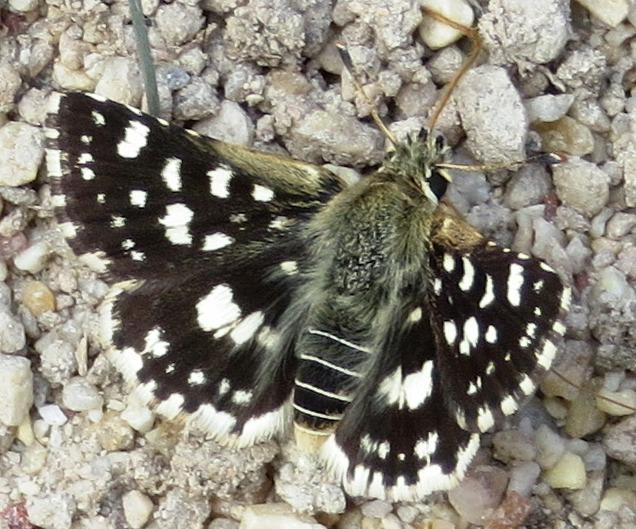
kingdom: Animalia
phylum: Arthropoda
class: Insecta
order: Lepidoptera
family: Hesperiidae
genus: Spialia
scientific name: Spialia spio
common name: Mountain sandman
